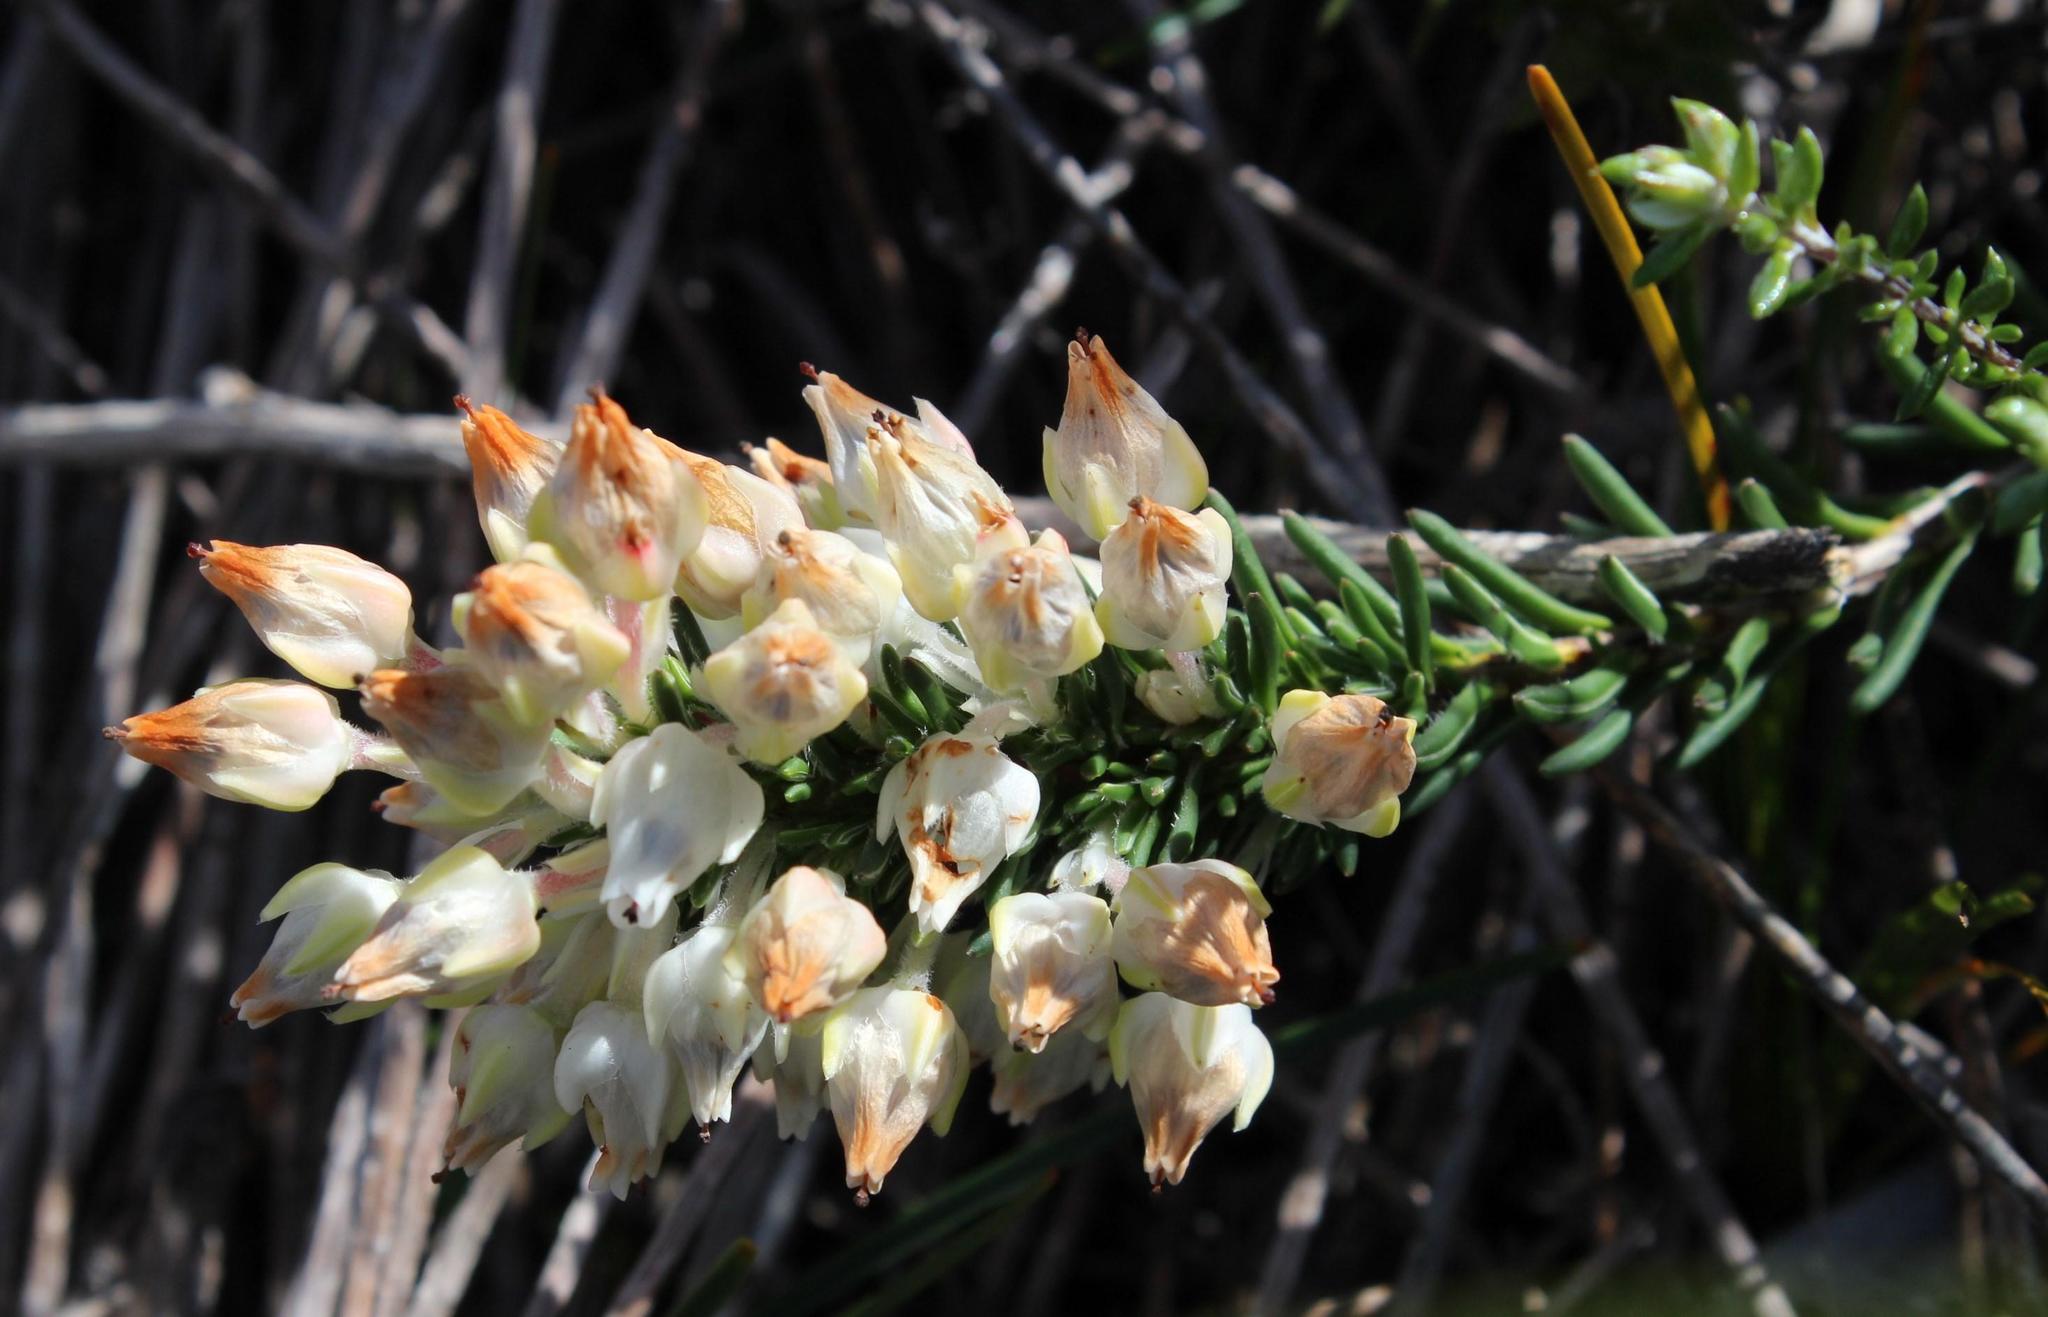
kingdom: Plantae
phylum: Tracheophyta
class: Magnoliopsida
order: Ericales
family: Ericaceae
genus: Erica
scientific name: Erica calcareophila
